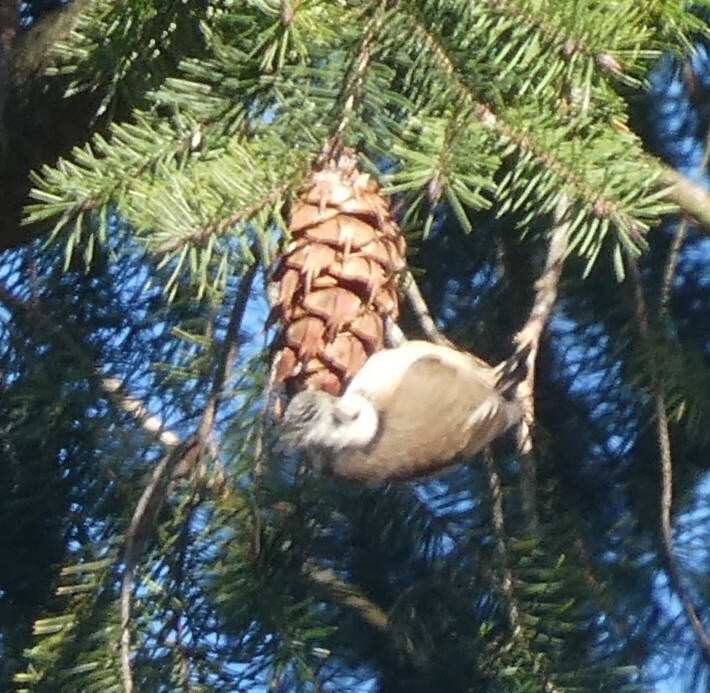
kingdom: Animalia
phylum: Chordata
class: Aves
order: Passeriformes
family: Paridae
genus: Lophophanes
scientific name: Lophophanes cristatus
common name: European crested tit
